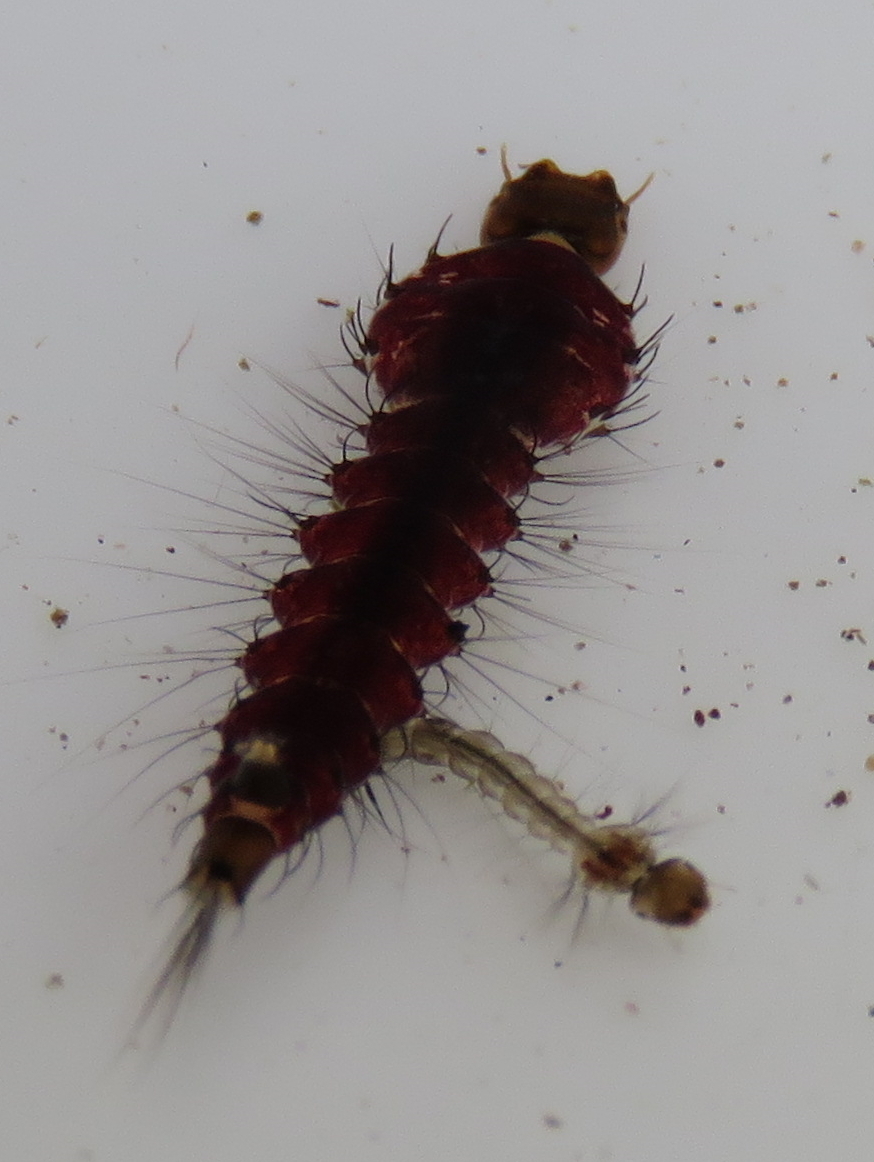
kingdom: Animalia
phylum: Arthropoda
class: Insecta
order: Diptera
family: Culicidae
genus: Toxorhynchites
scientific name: Toxorhynchites speciosus
